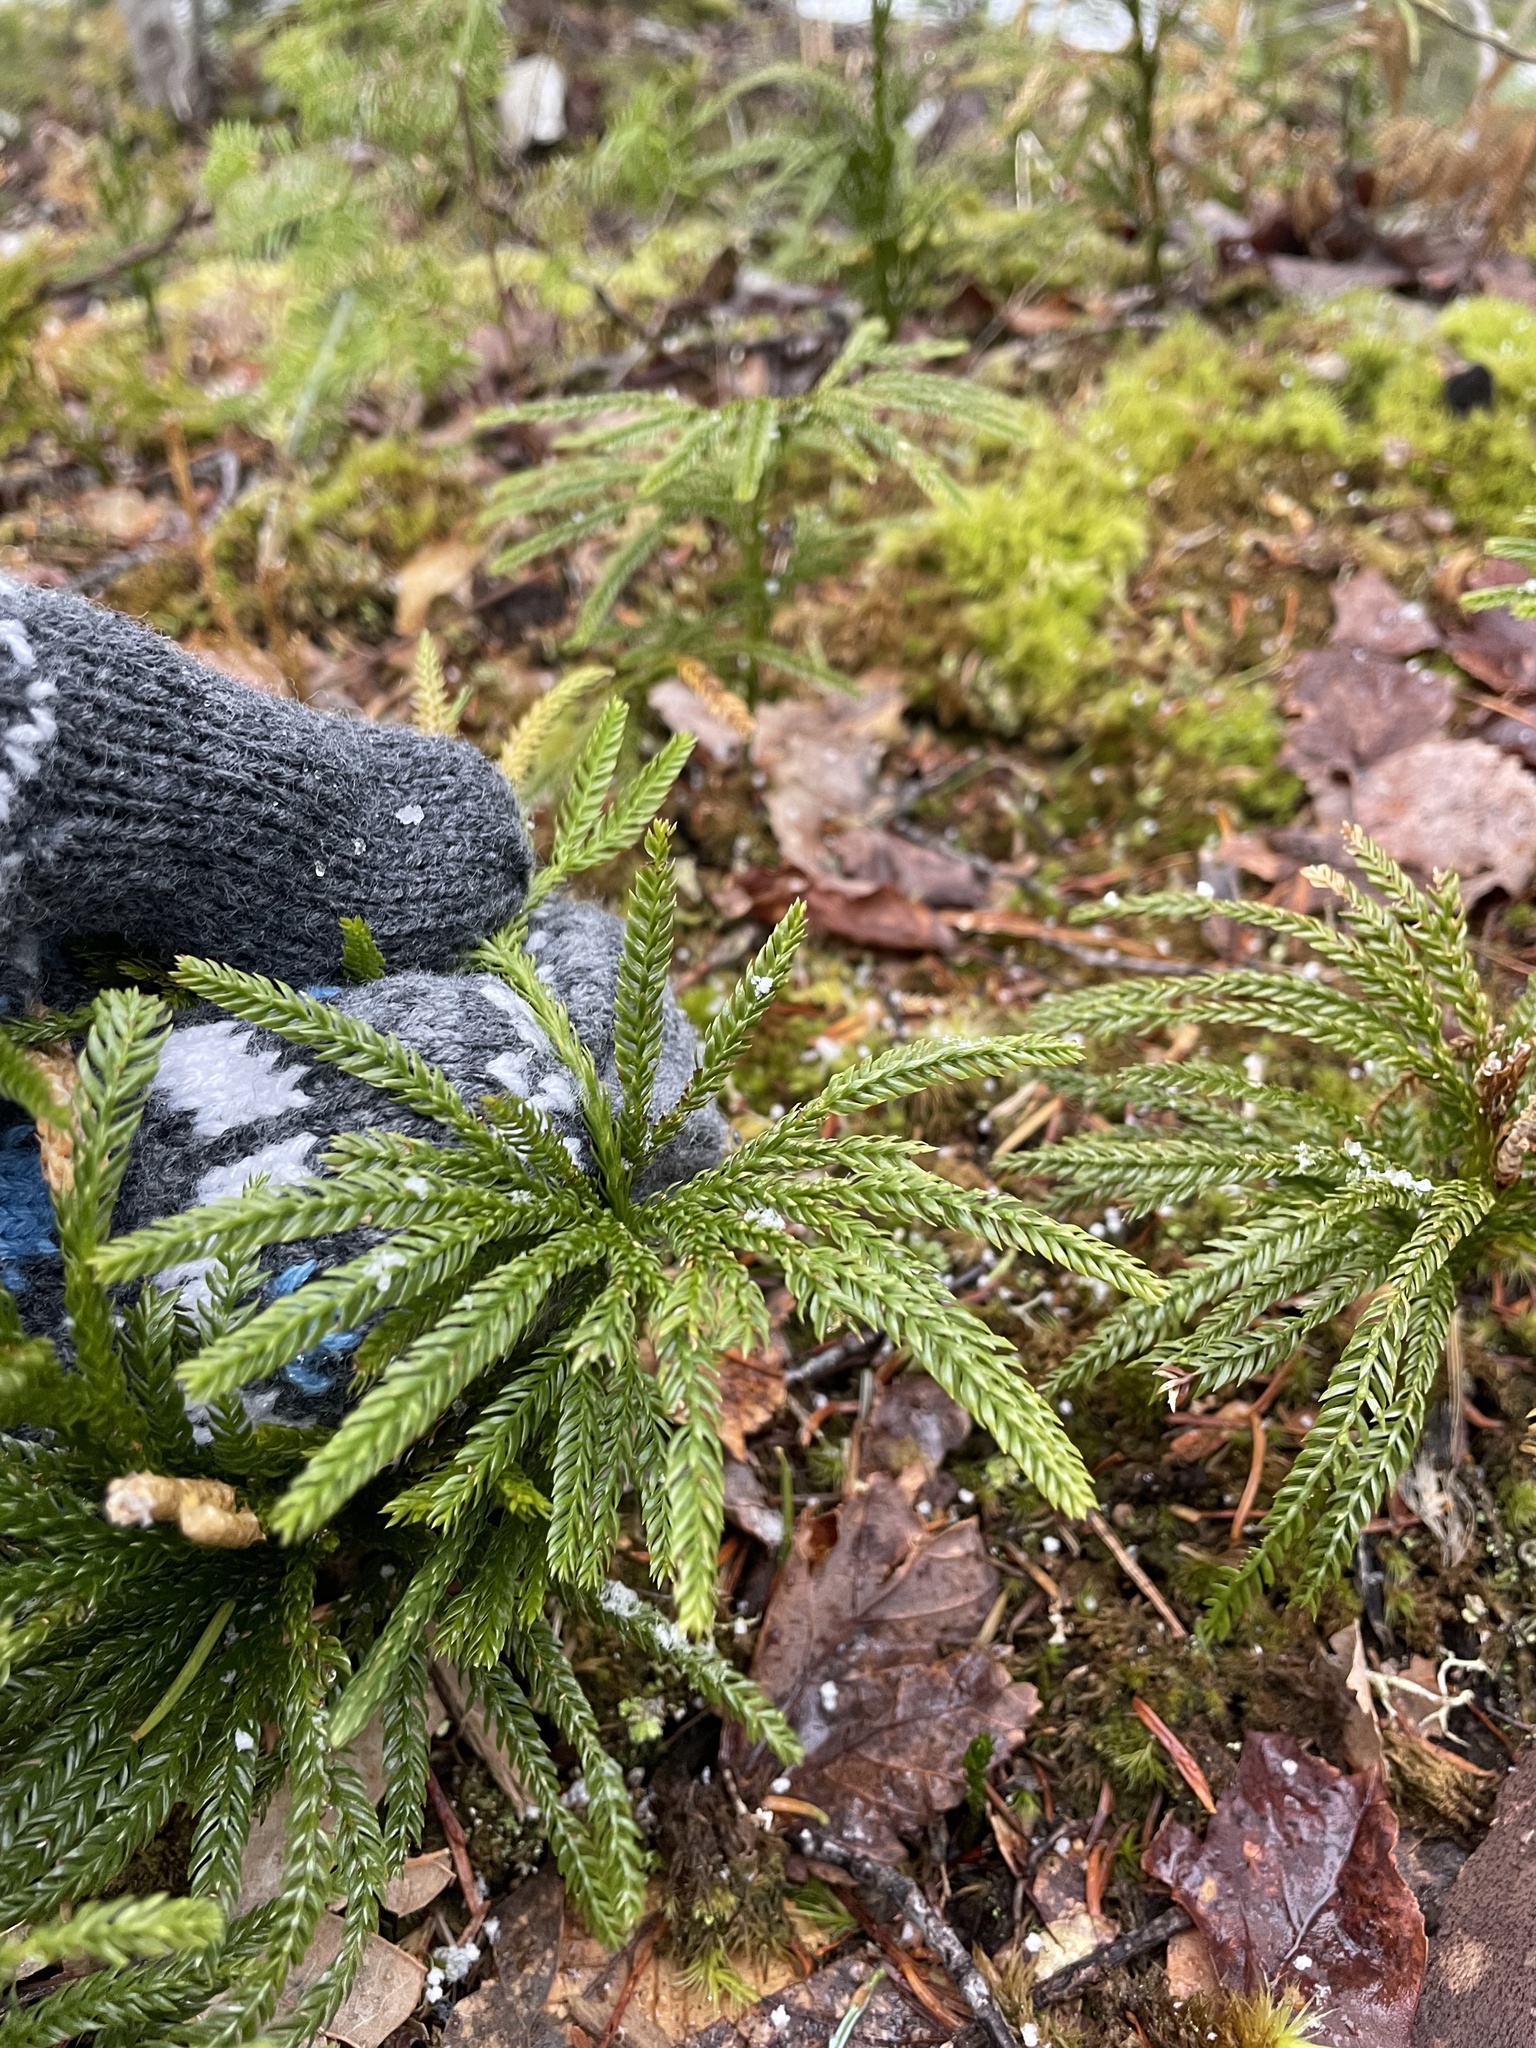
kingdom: Plantae
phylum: Tracheophyta
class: Lycopodiopsida
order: Lycopodiales
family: Lycopodiaceae
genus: Dendrolycopodium
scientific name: Dendrolycopodium obscurum
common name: Common ground-pine
